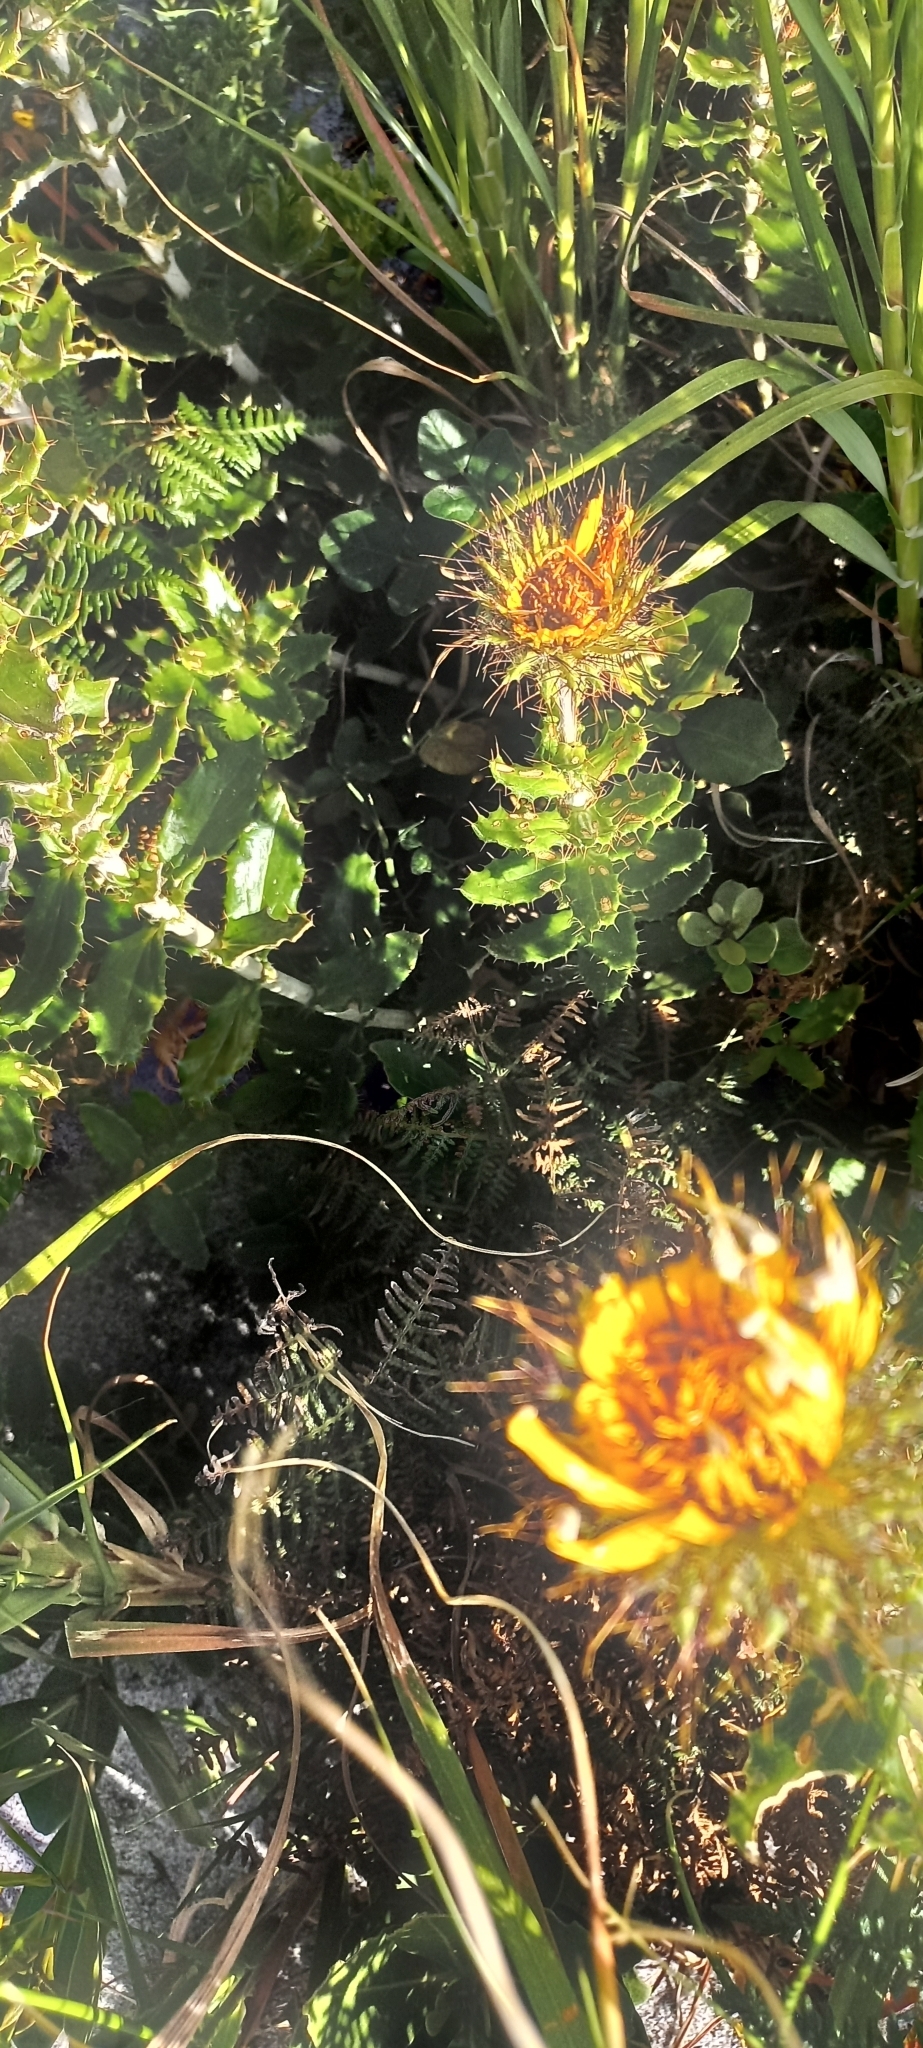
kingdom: Plantae
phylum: Tracheophyta
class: Magnoliopsida
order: Asterales
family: Asteraceae
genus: Berkheya
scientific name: Berkheya barbata
